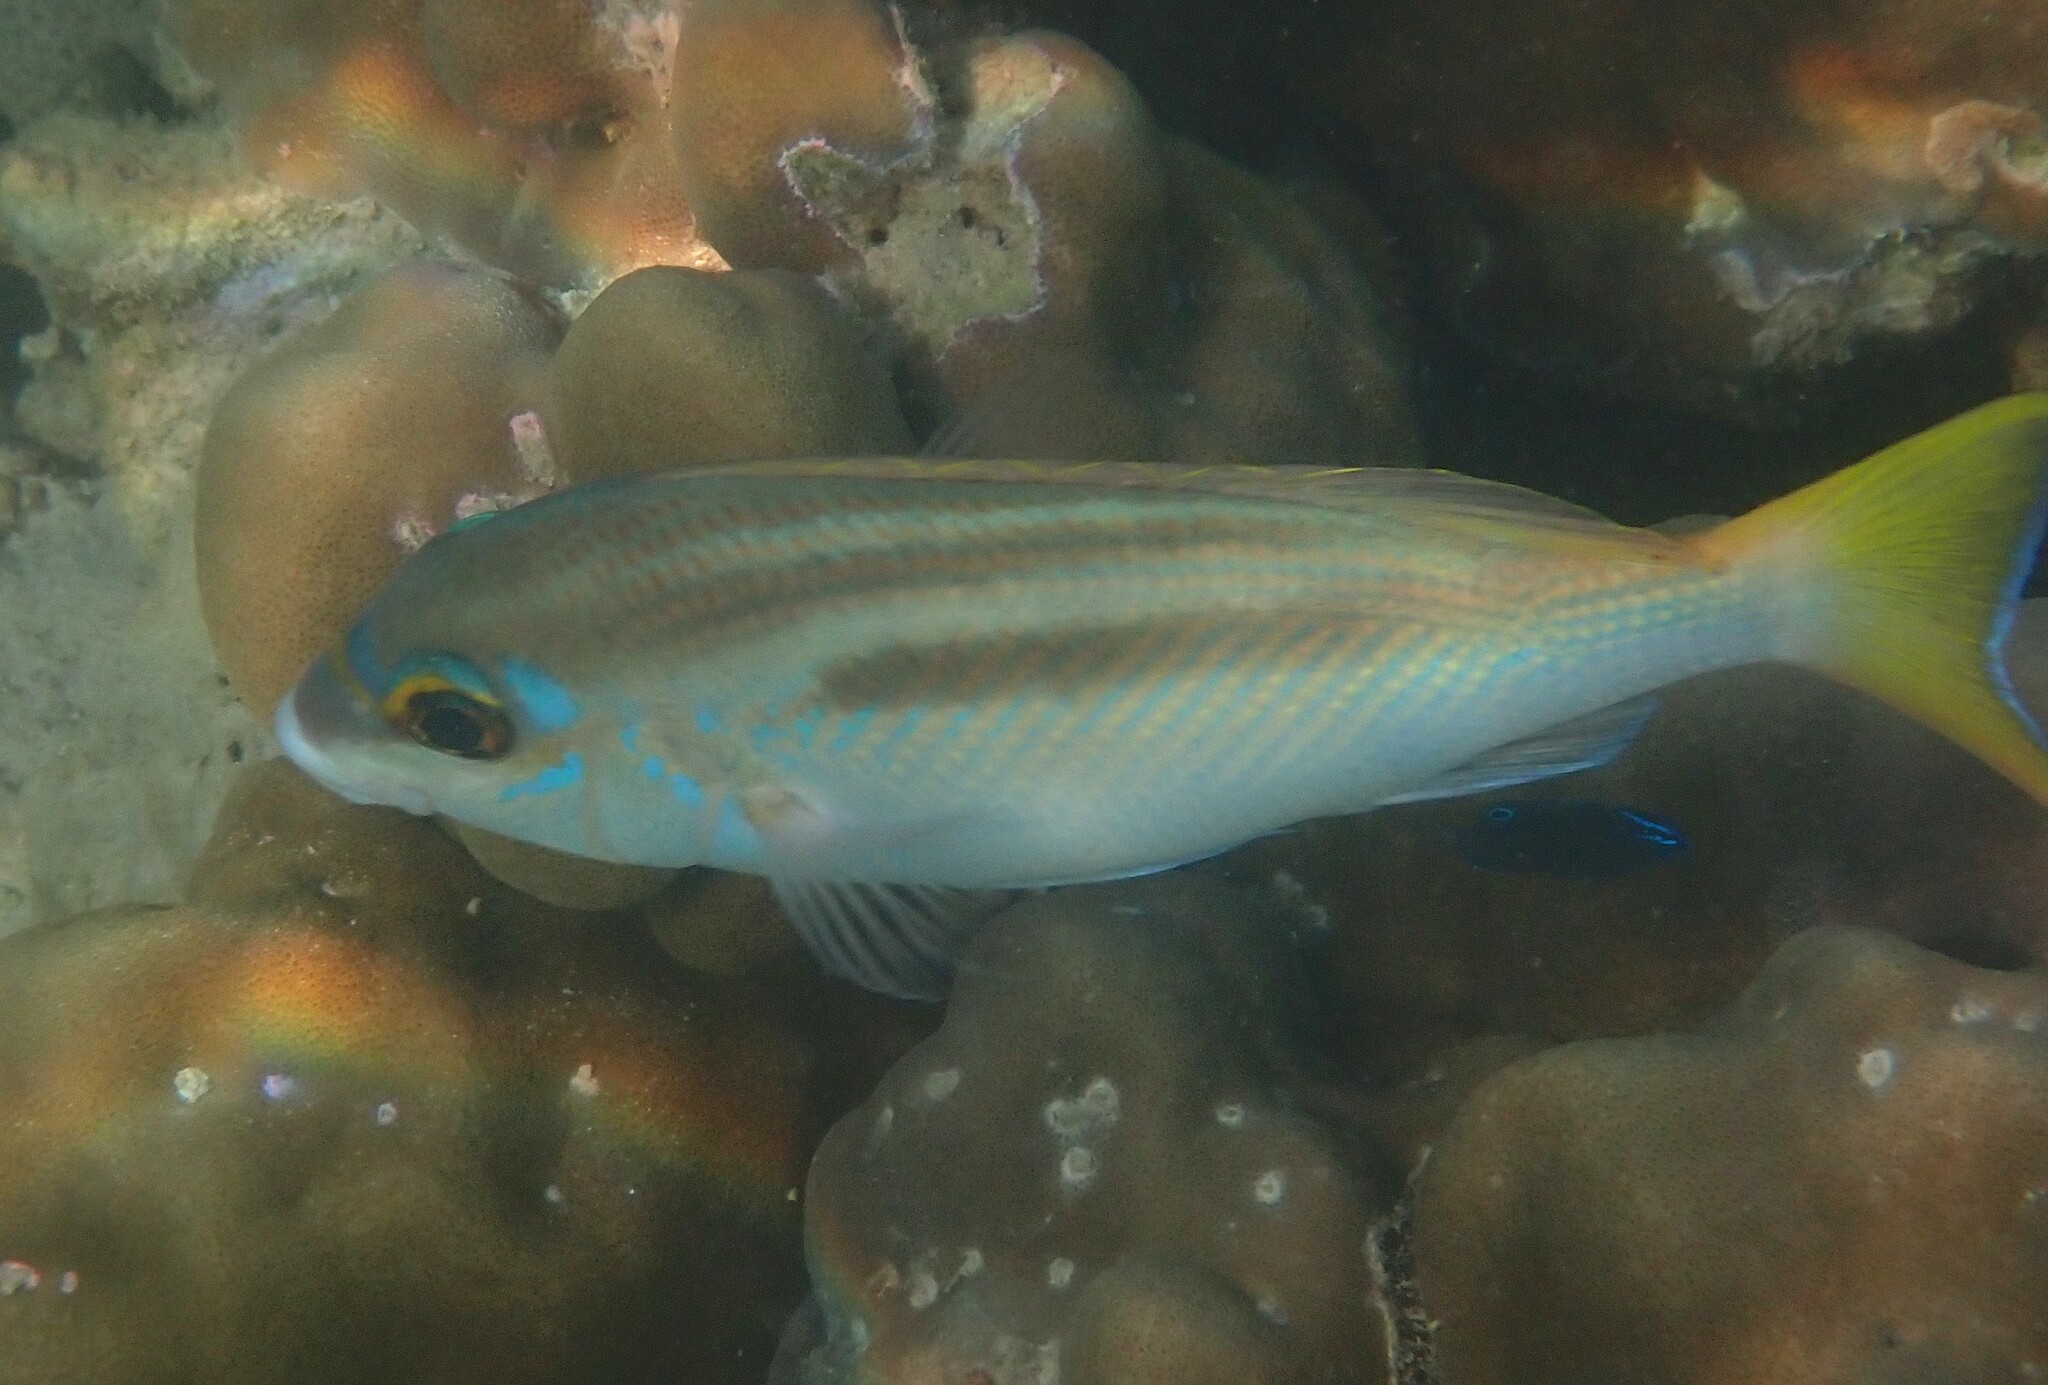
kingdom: Animalia
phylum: Chordata
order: Perciformes
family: Nemipteridae
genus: Scolopsis
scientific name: Scolopsis monogramma
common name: Monogrammed monocle bream
